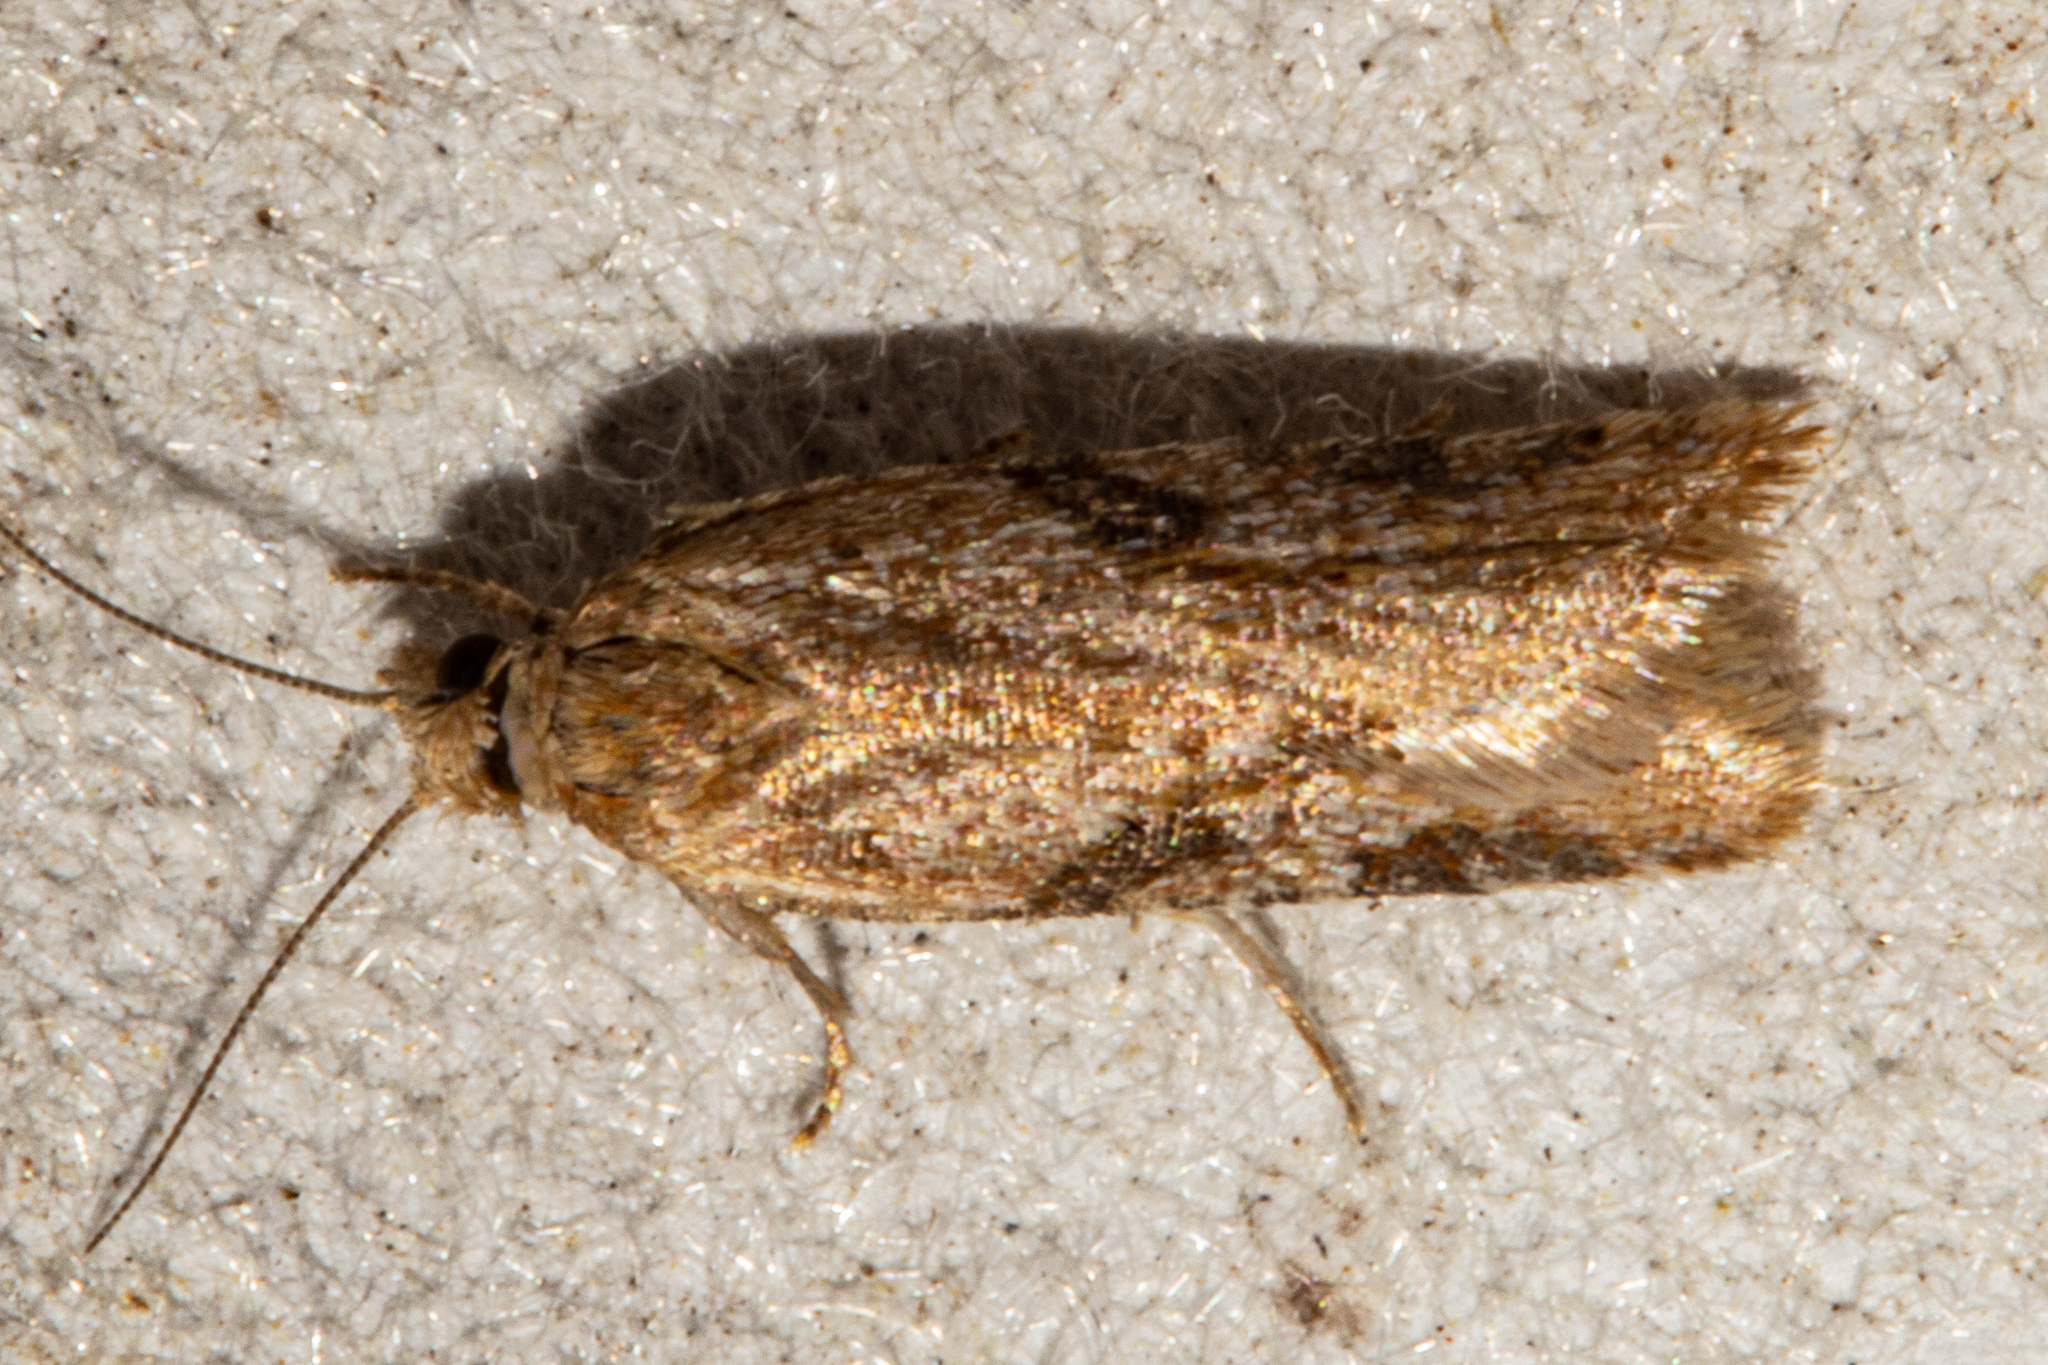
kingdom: Animalia
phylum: Arthropoda
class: Insecta
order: Lepidoptera
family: Tortricidae
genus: Capua
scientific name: Capua semiferana
